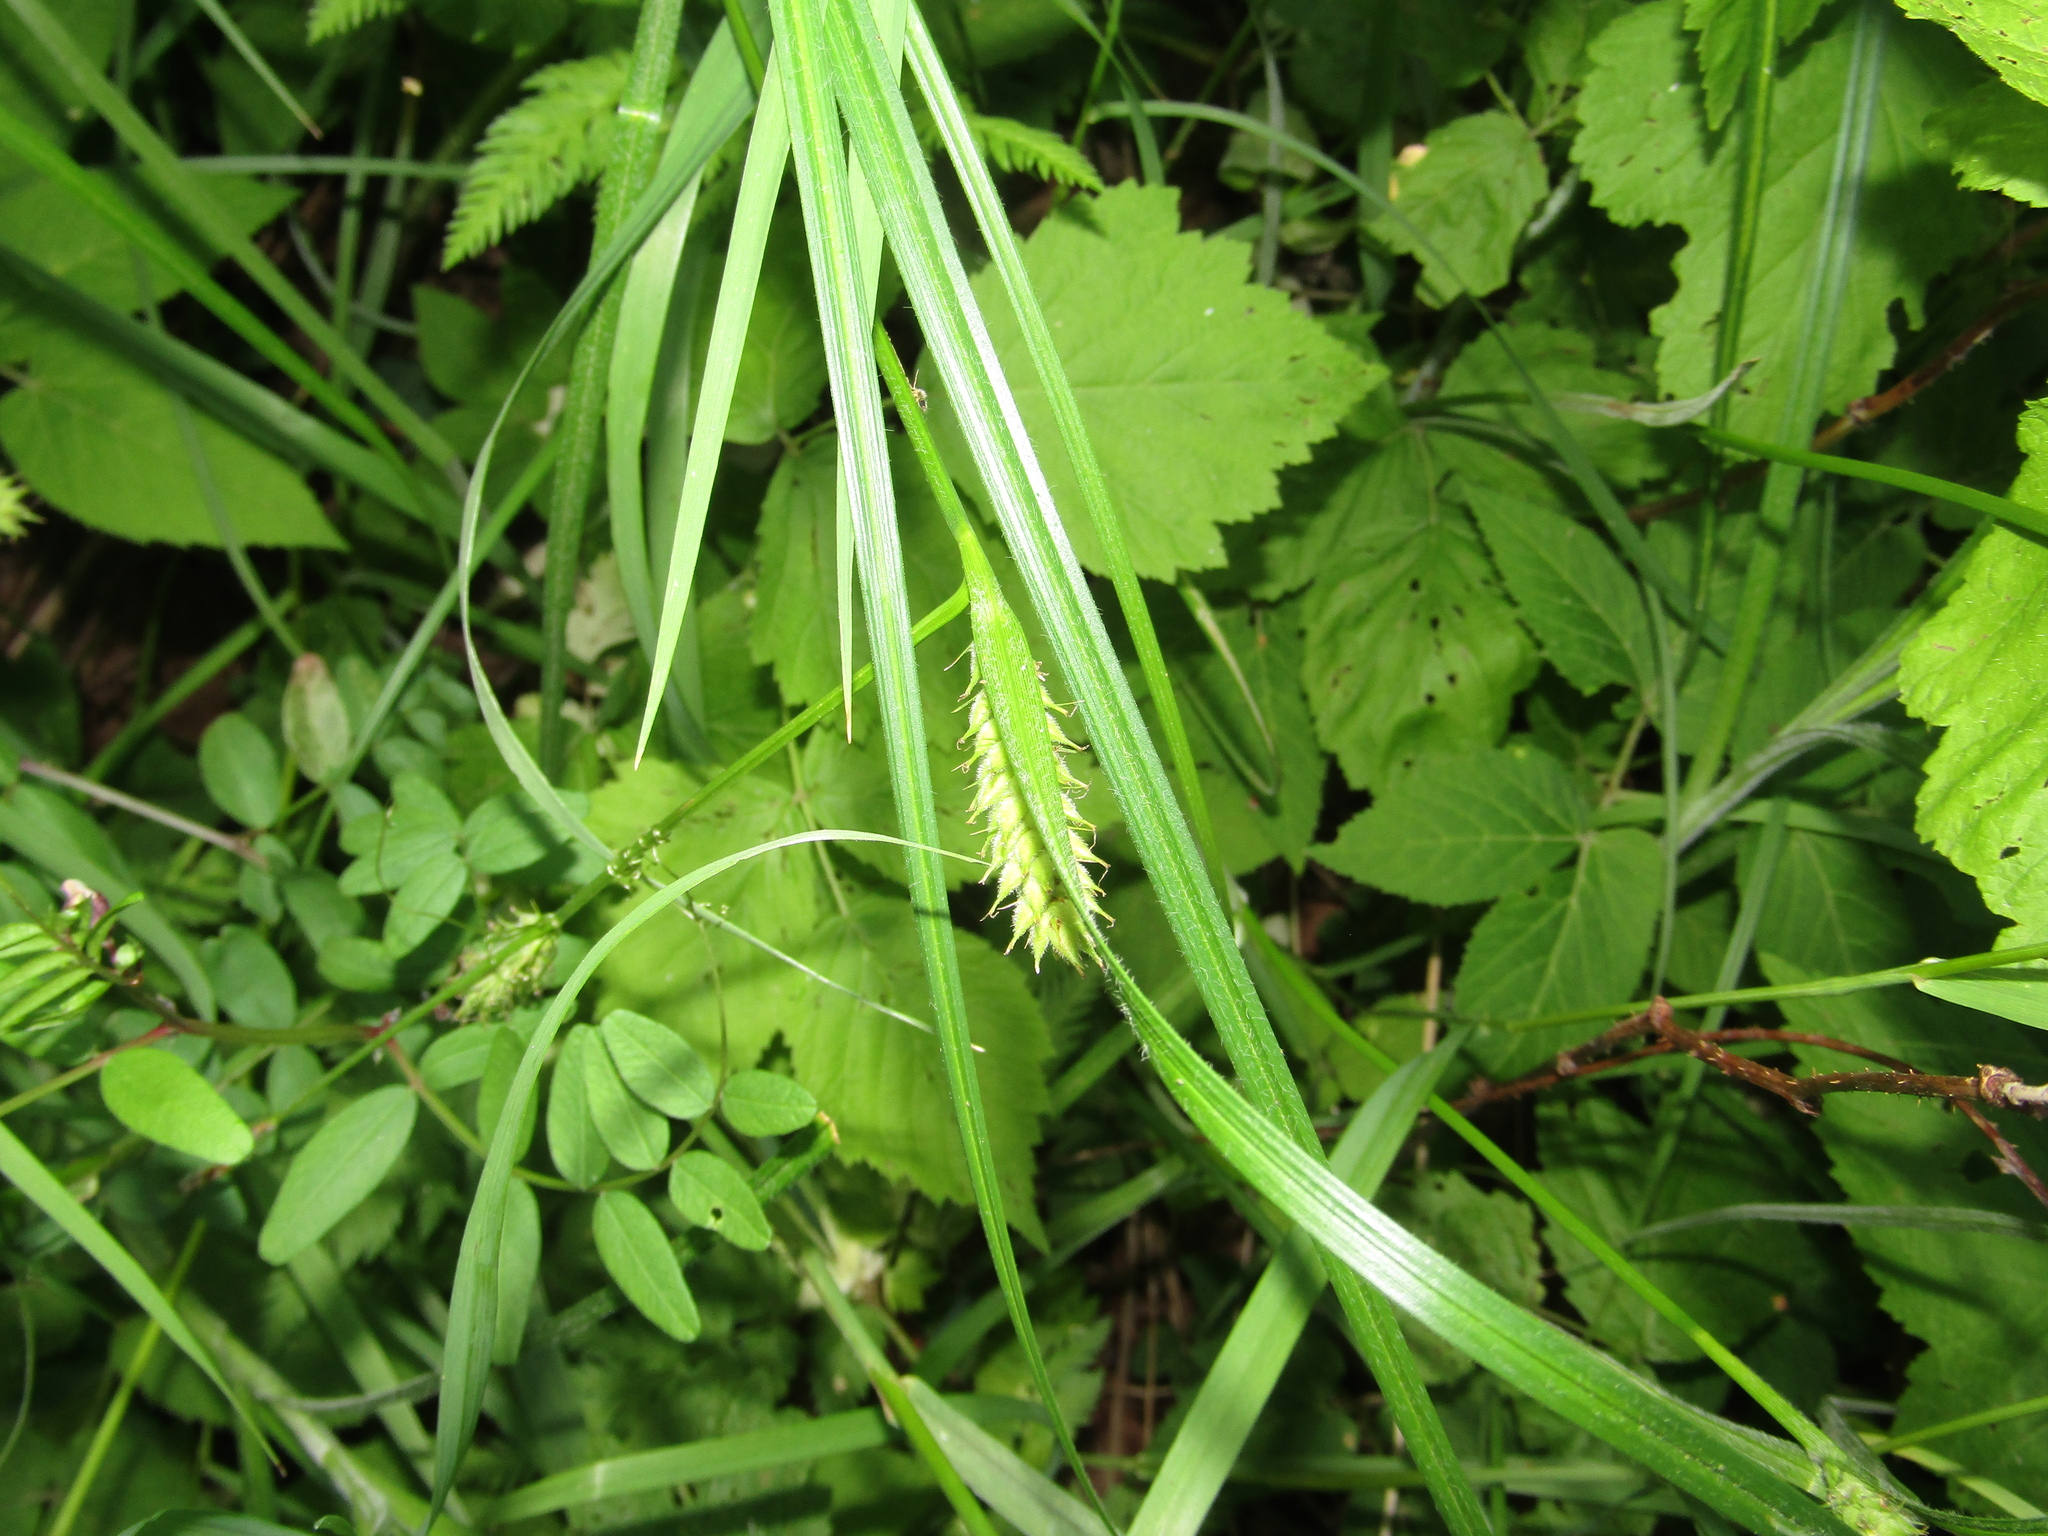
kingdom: Plantae
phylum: Tracheophyta
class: Liliopsida
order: Poales
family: Cyperaceae
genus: Carex
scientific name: Carex hirta
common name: Hairy sedge
